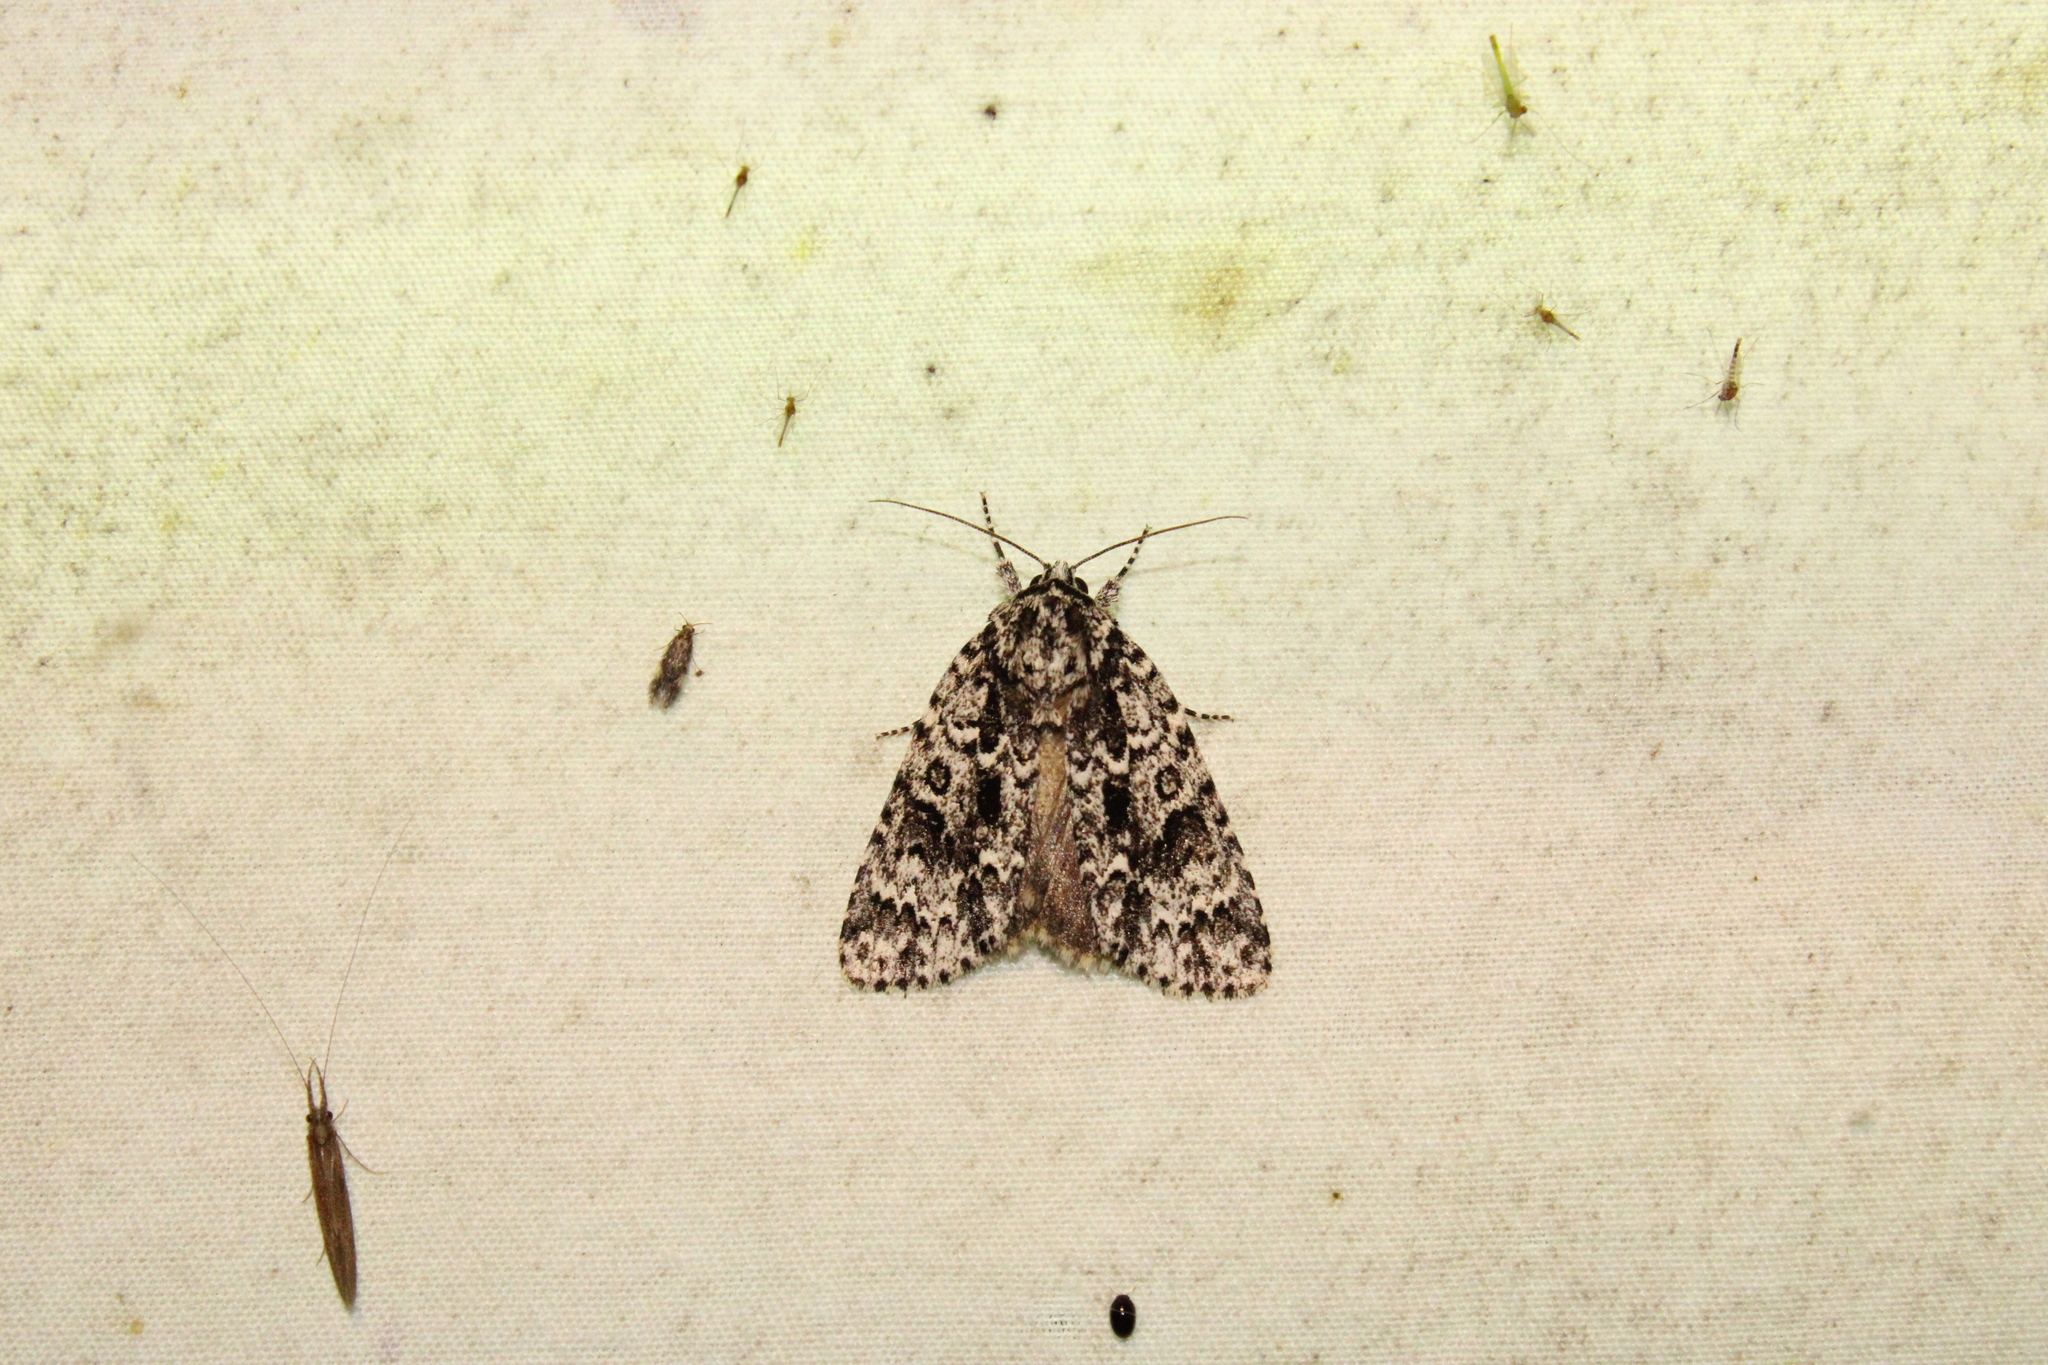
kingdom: Animalia
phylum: Arthropoda
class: Insecta
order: Lepidoptera
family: Noctuidae
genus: Acronicta
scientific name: Acronicta noctivaga
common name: Night-wandering dagger
